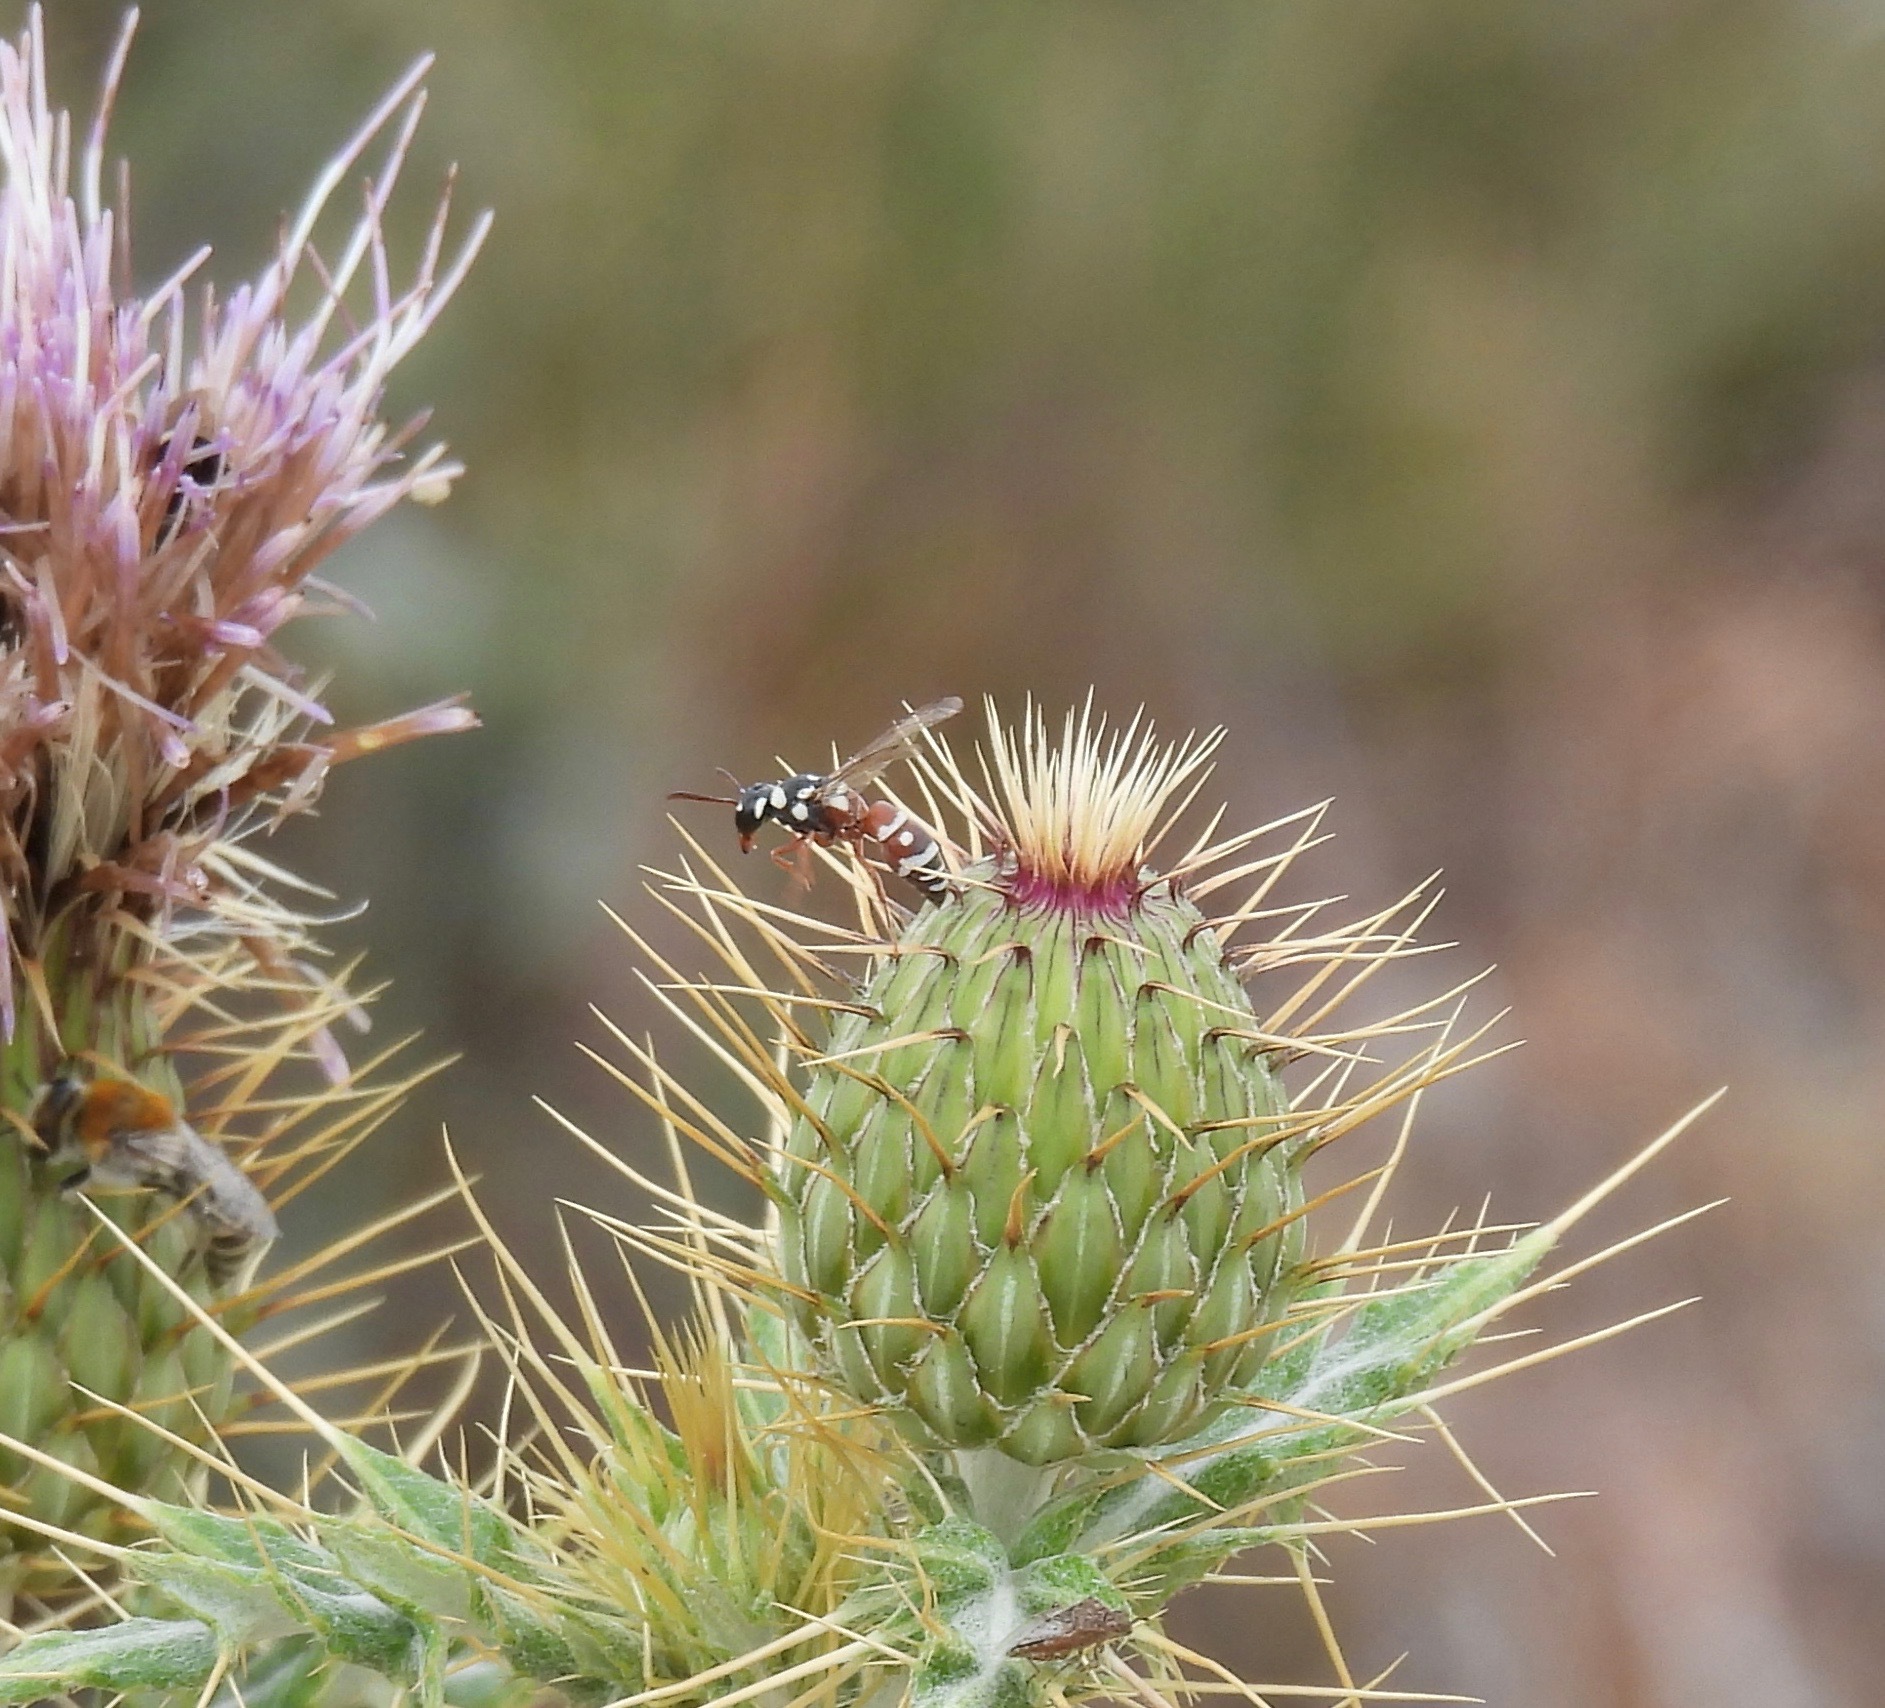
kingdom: Animalia
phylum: Arthropoda
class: Insecta
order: Hymenoptera
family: Eumenidae
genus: Leucodynerus
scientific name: Leucodynerus
